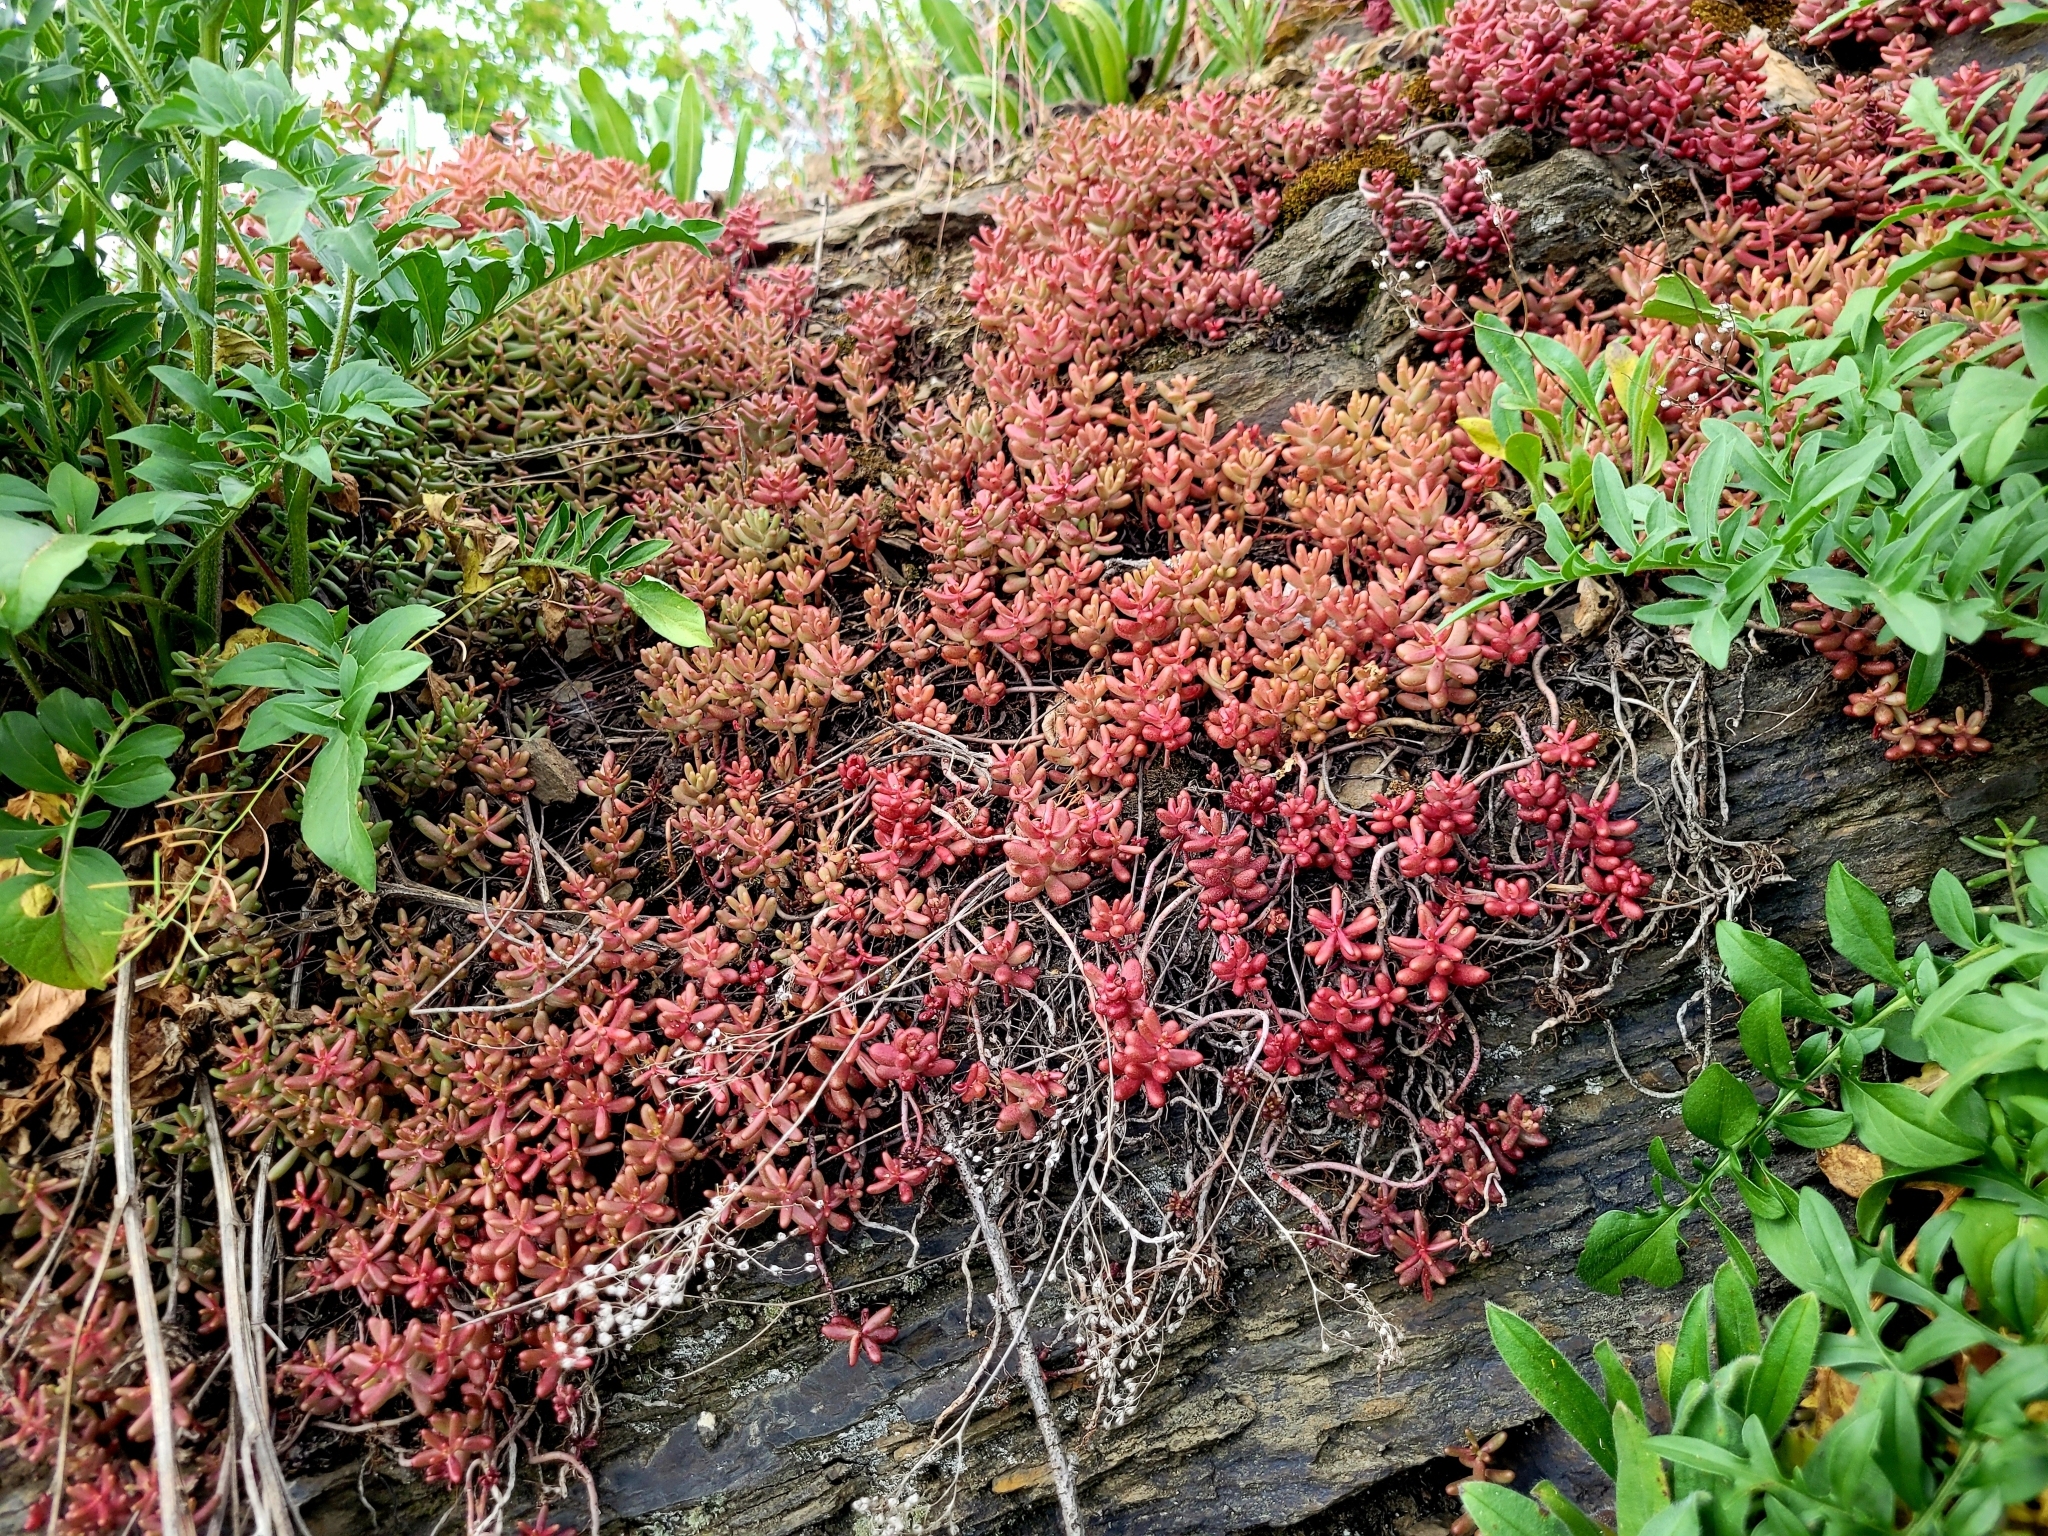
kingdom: Plantae
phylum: Tracheophyta
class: Magnoliopsida
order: Saxifragales
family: Crassulaceae
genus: Sedum
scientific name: Sedum album
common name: White stonecrop
